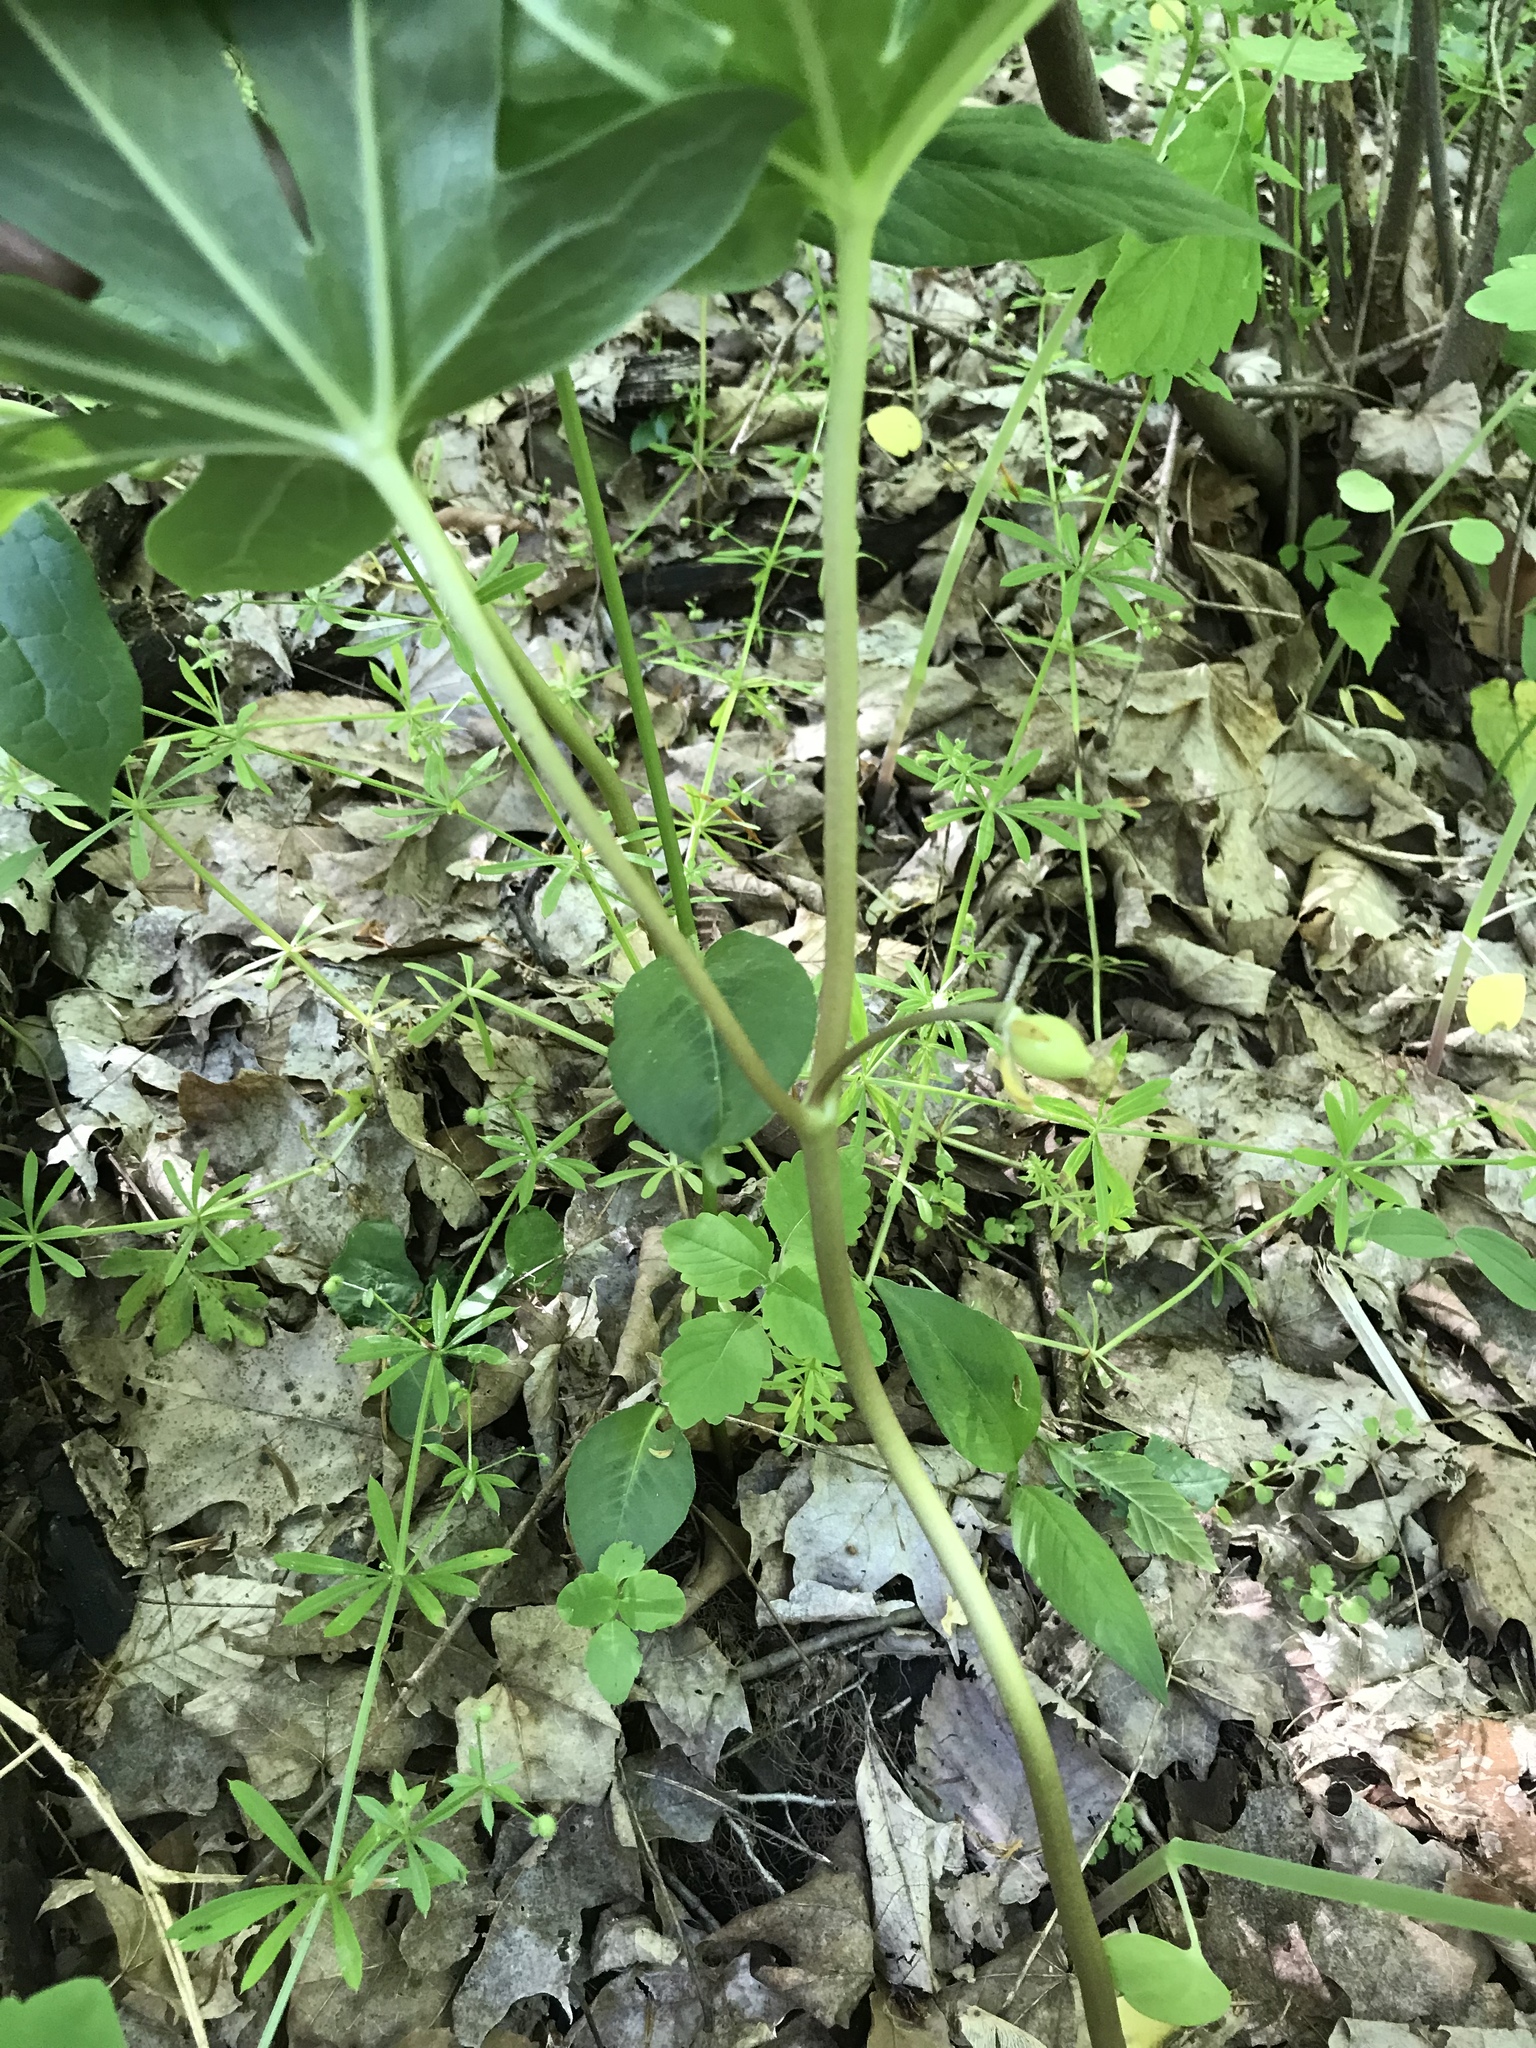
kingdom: Plantae
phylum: Tracheophyta
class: Magnoliopsida
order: Ranunculales
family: Berberidaceae
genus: Podophyllum
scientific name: Podophyllum peltatum
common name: Wild mandrake
